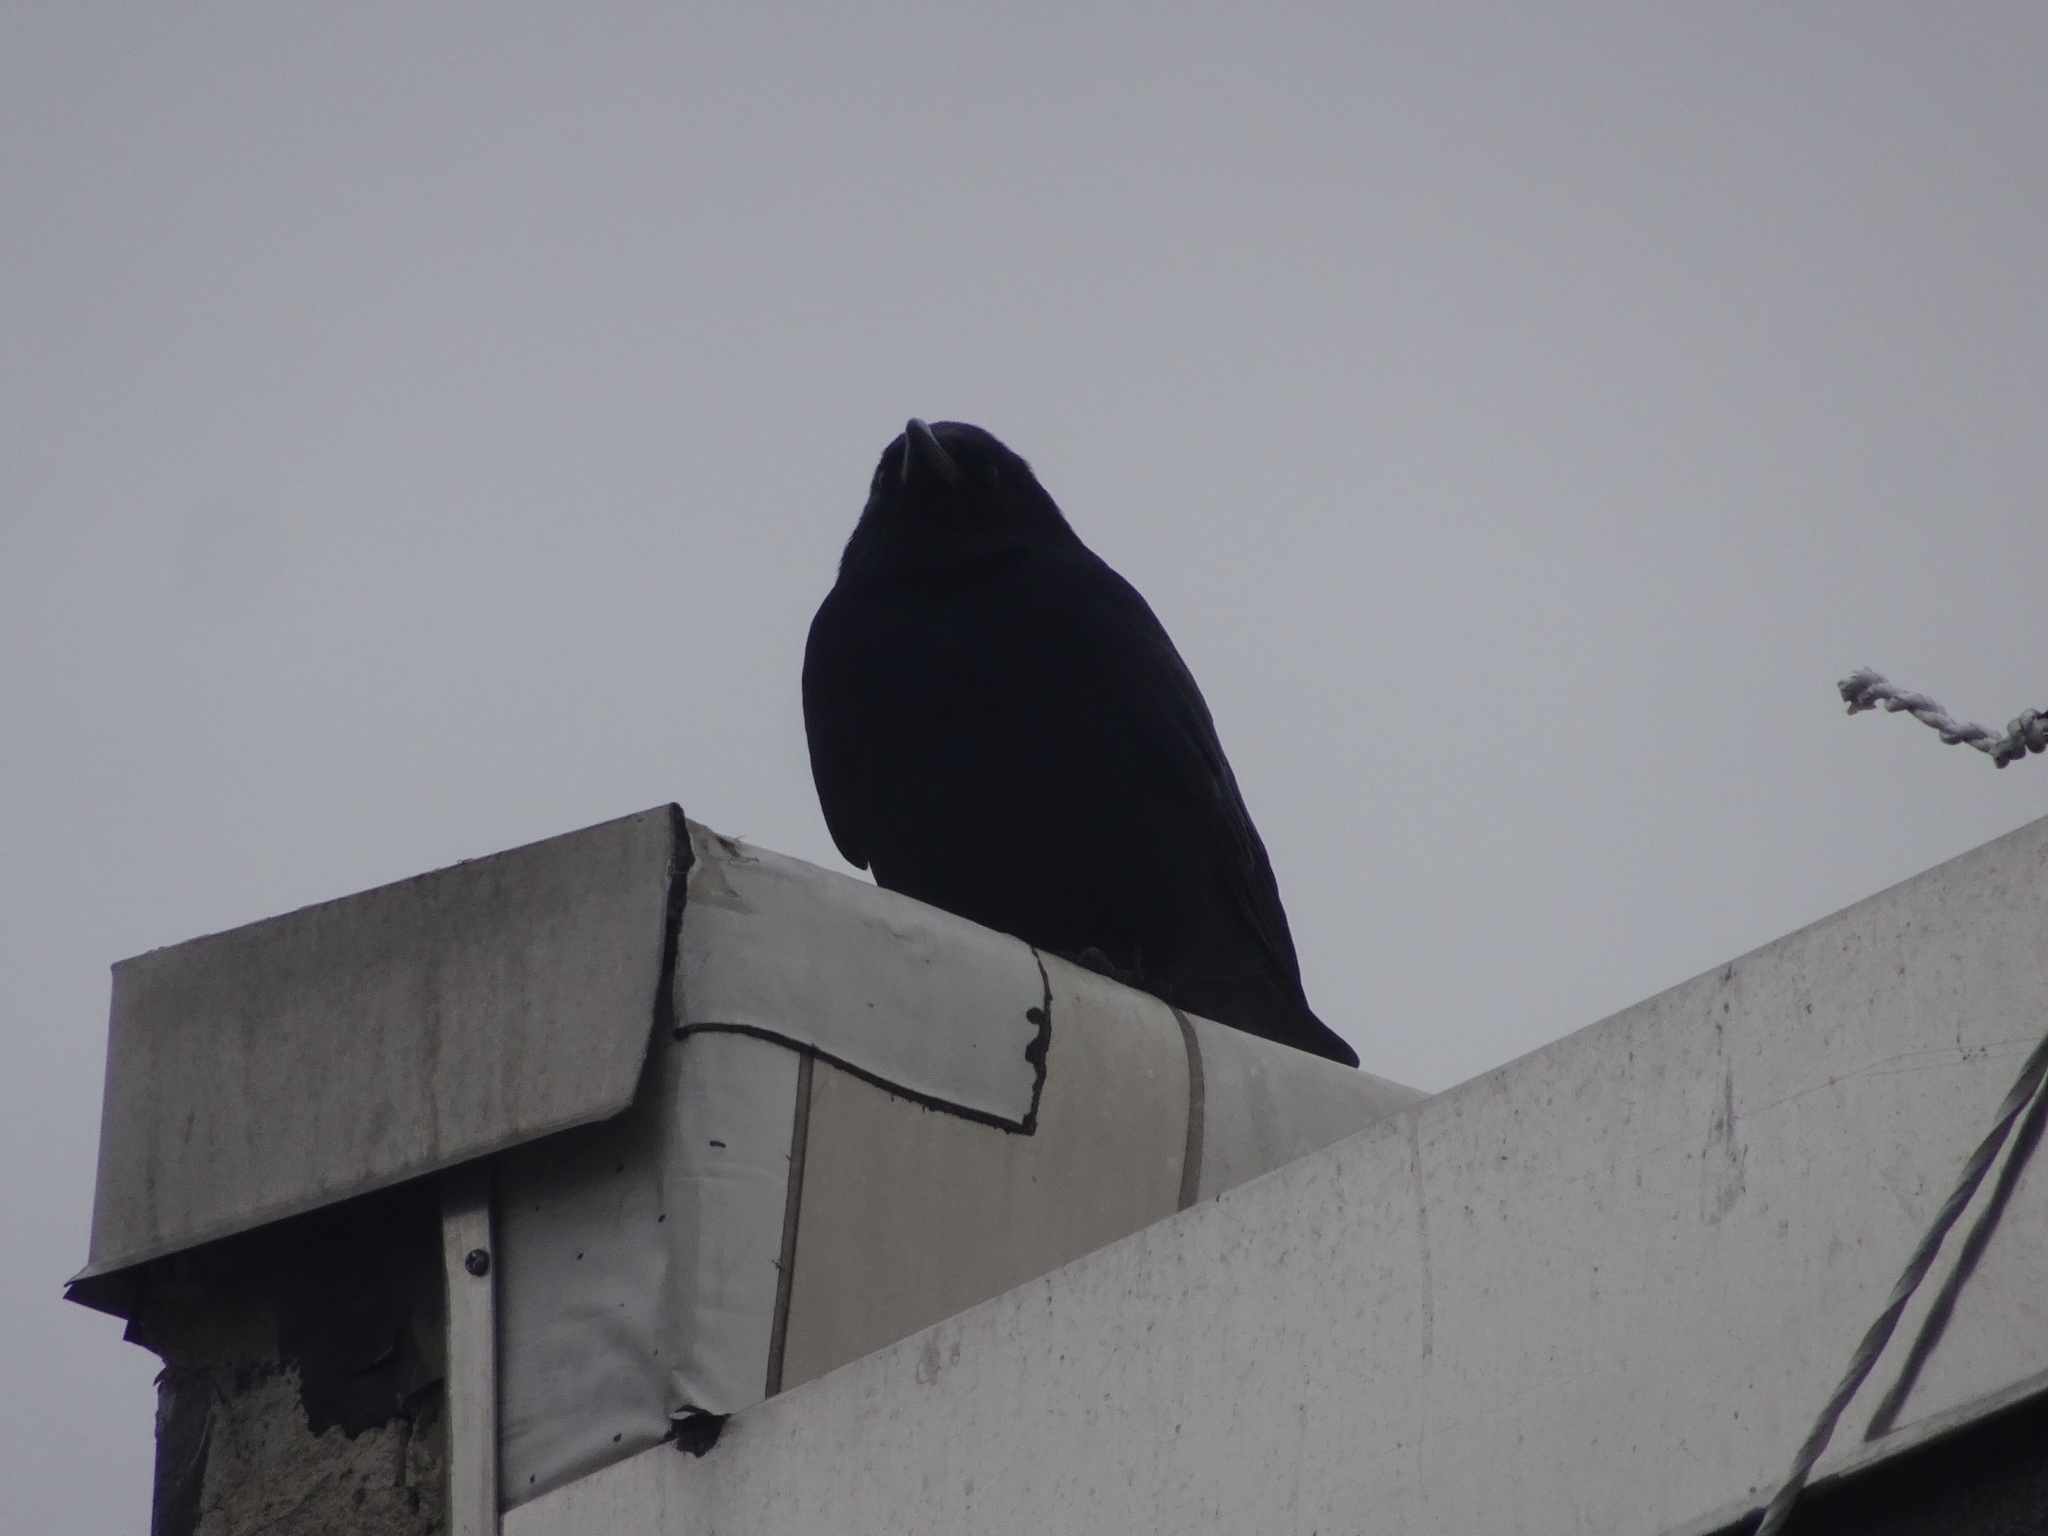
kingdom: Animalia
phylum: Chordata
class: Aves
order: Passeriformes
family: Corvidae
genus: Corvus
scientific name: Corvus
